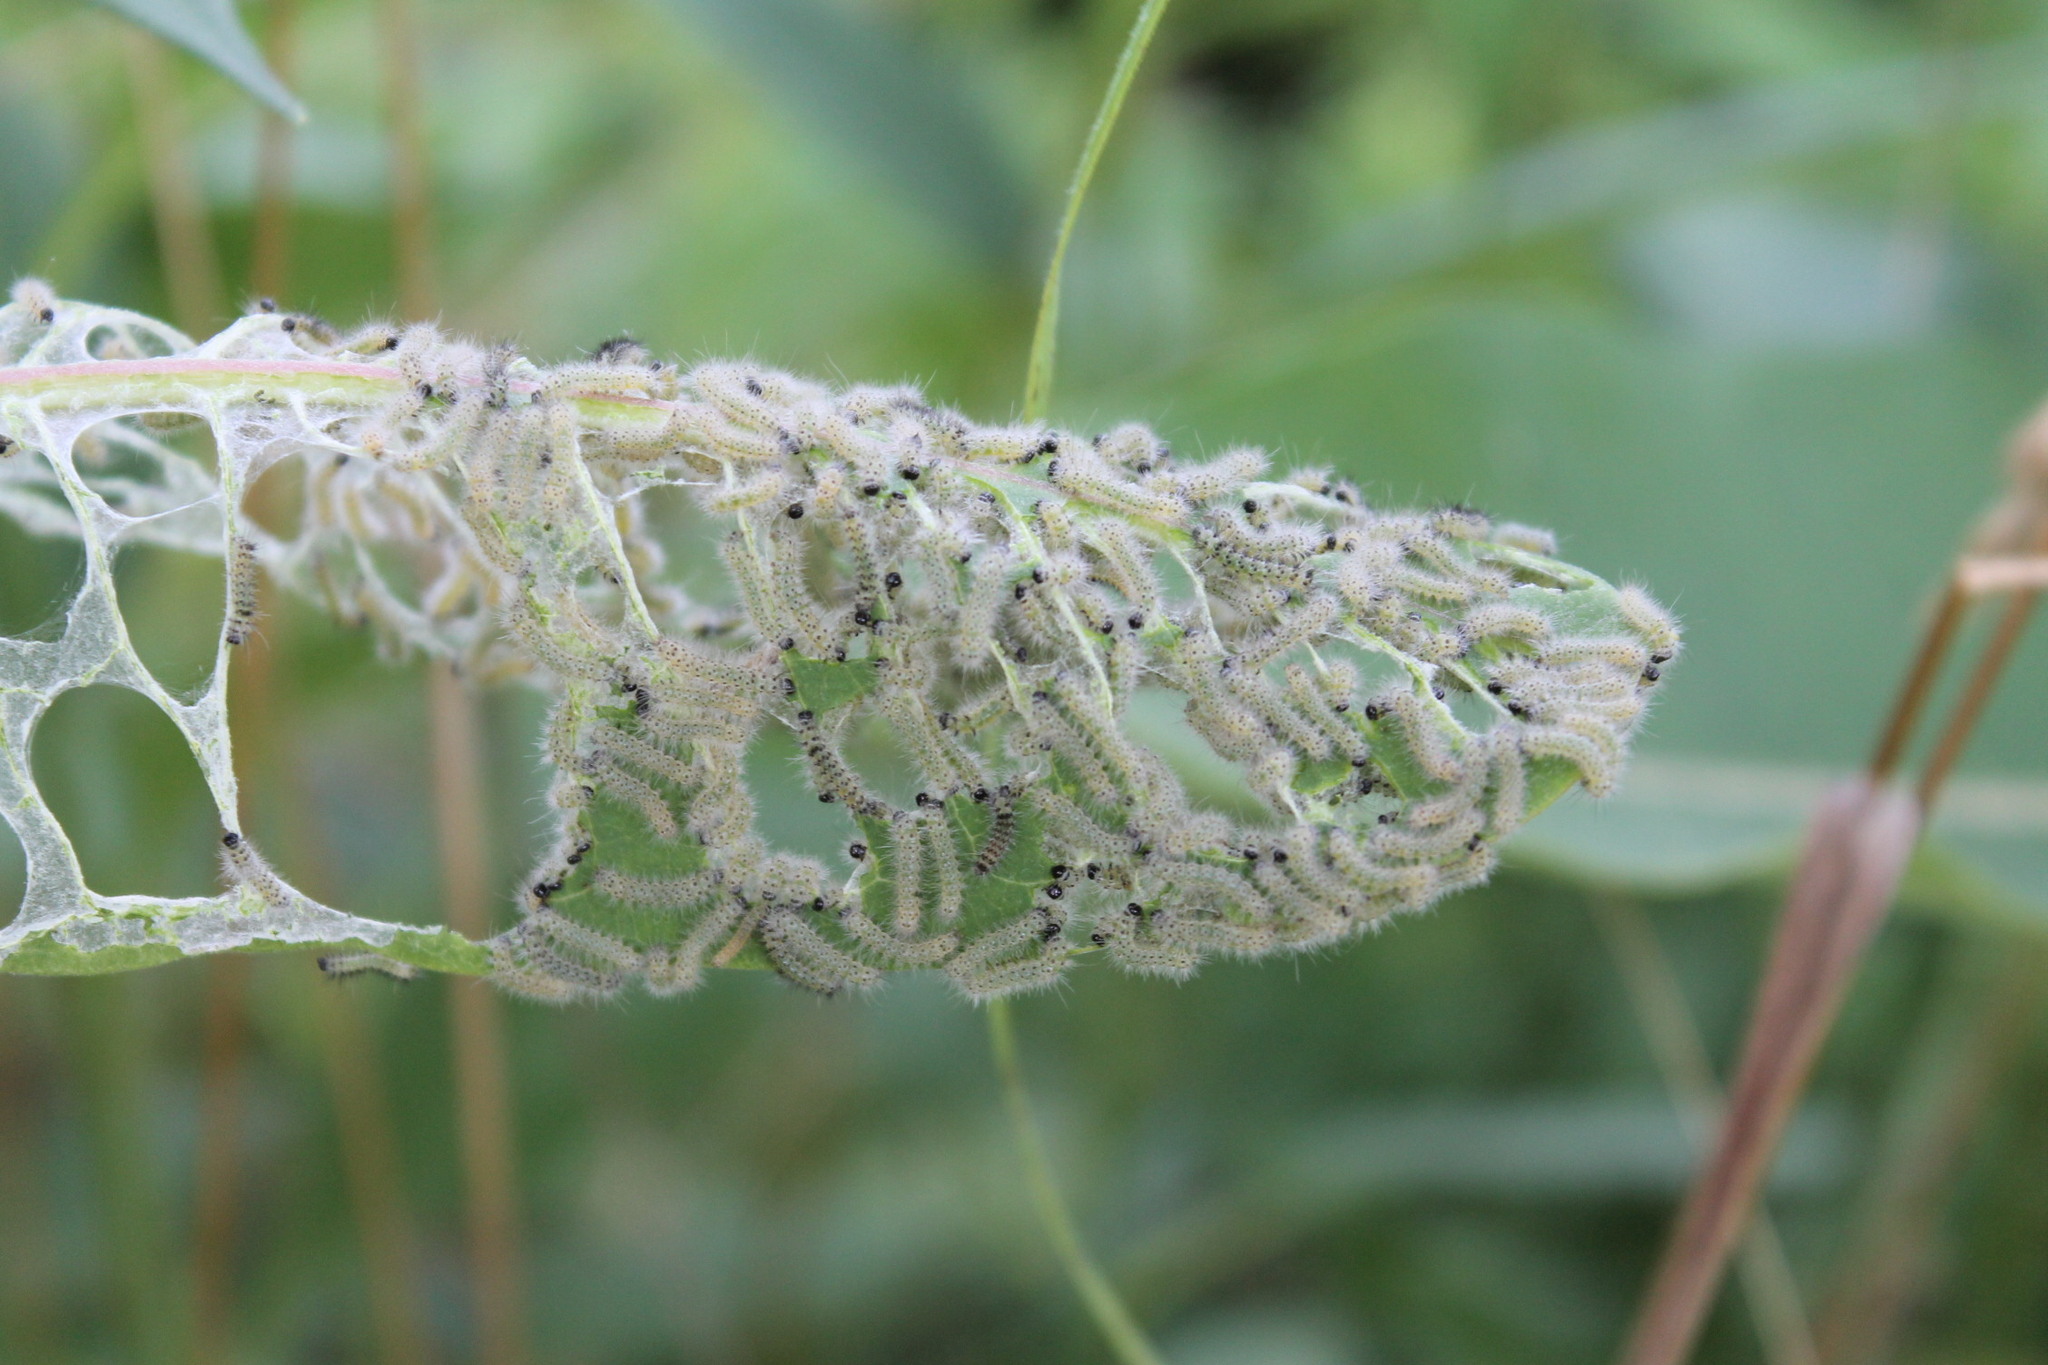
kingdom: Animalia
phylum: Arthropoda
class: Insecta
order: Lepidoptera
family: Erebidae
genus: Euchaetes
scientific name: Euchaetes egle
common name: Milkweed tussock moth
